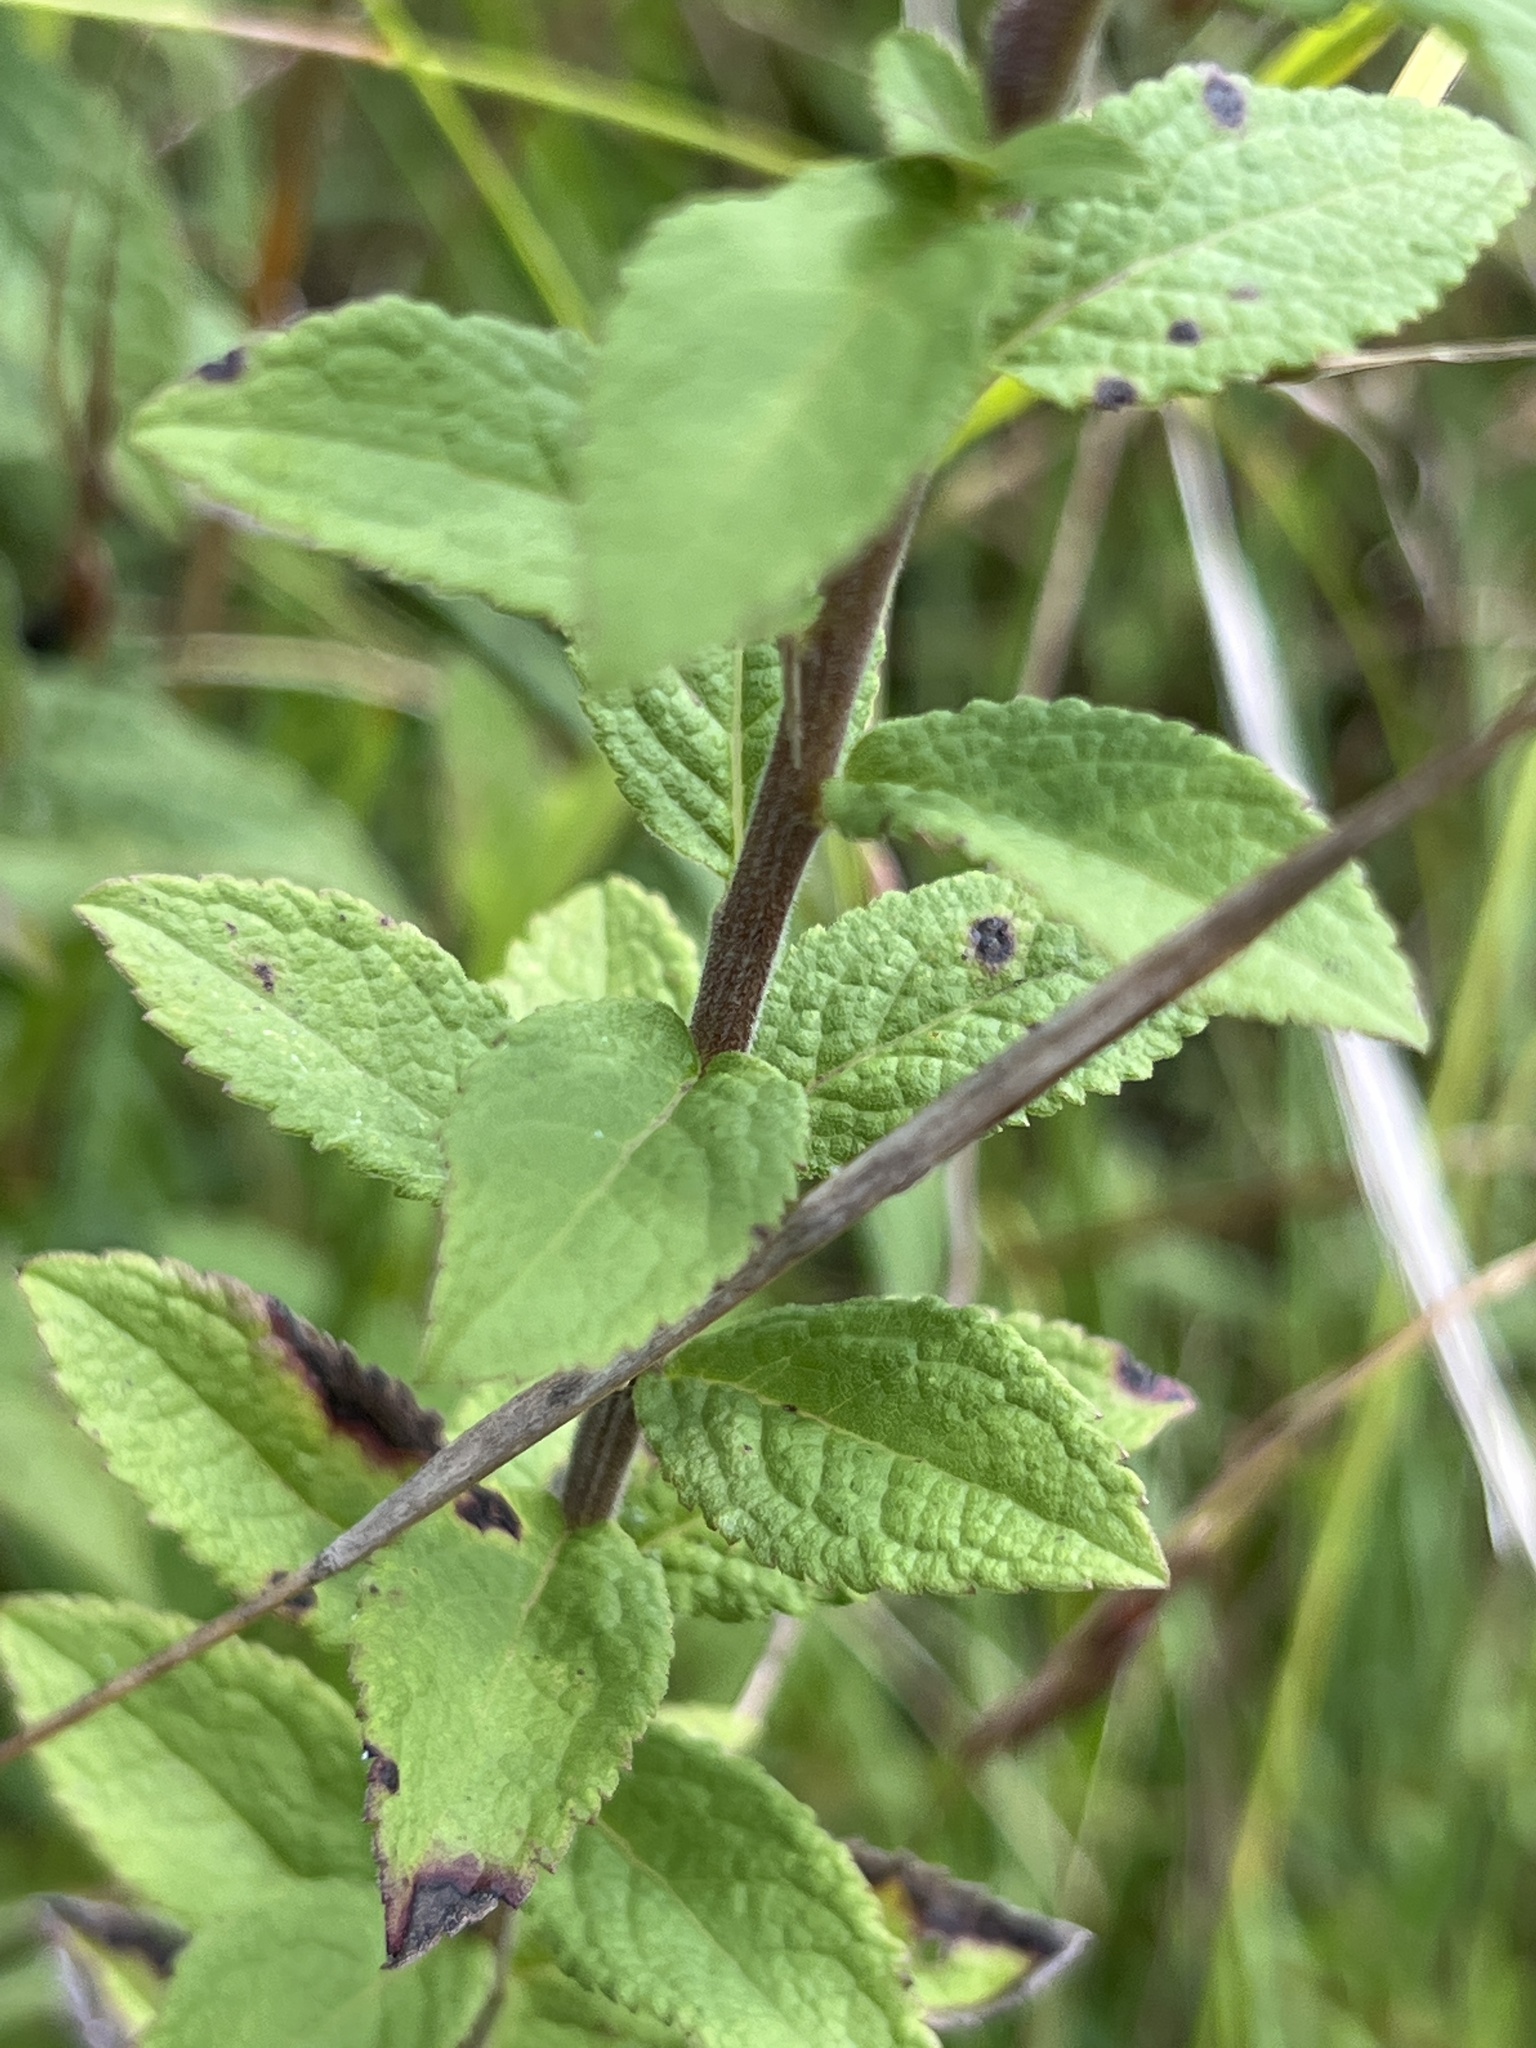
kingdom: Plantae
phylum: Tracheophyta
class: Magnoliopsida
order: Asterales
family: Asteraceae
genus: Solidago
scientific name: Solidago rugosa
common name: Rough-stemmed goldenrod
